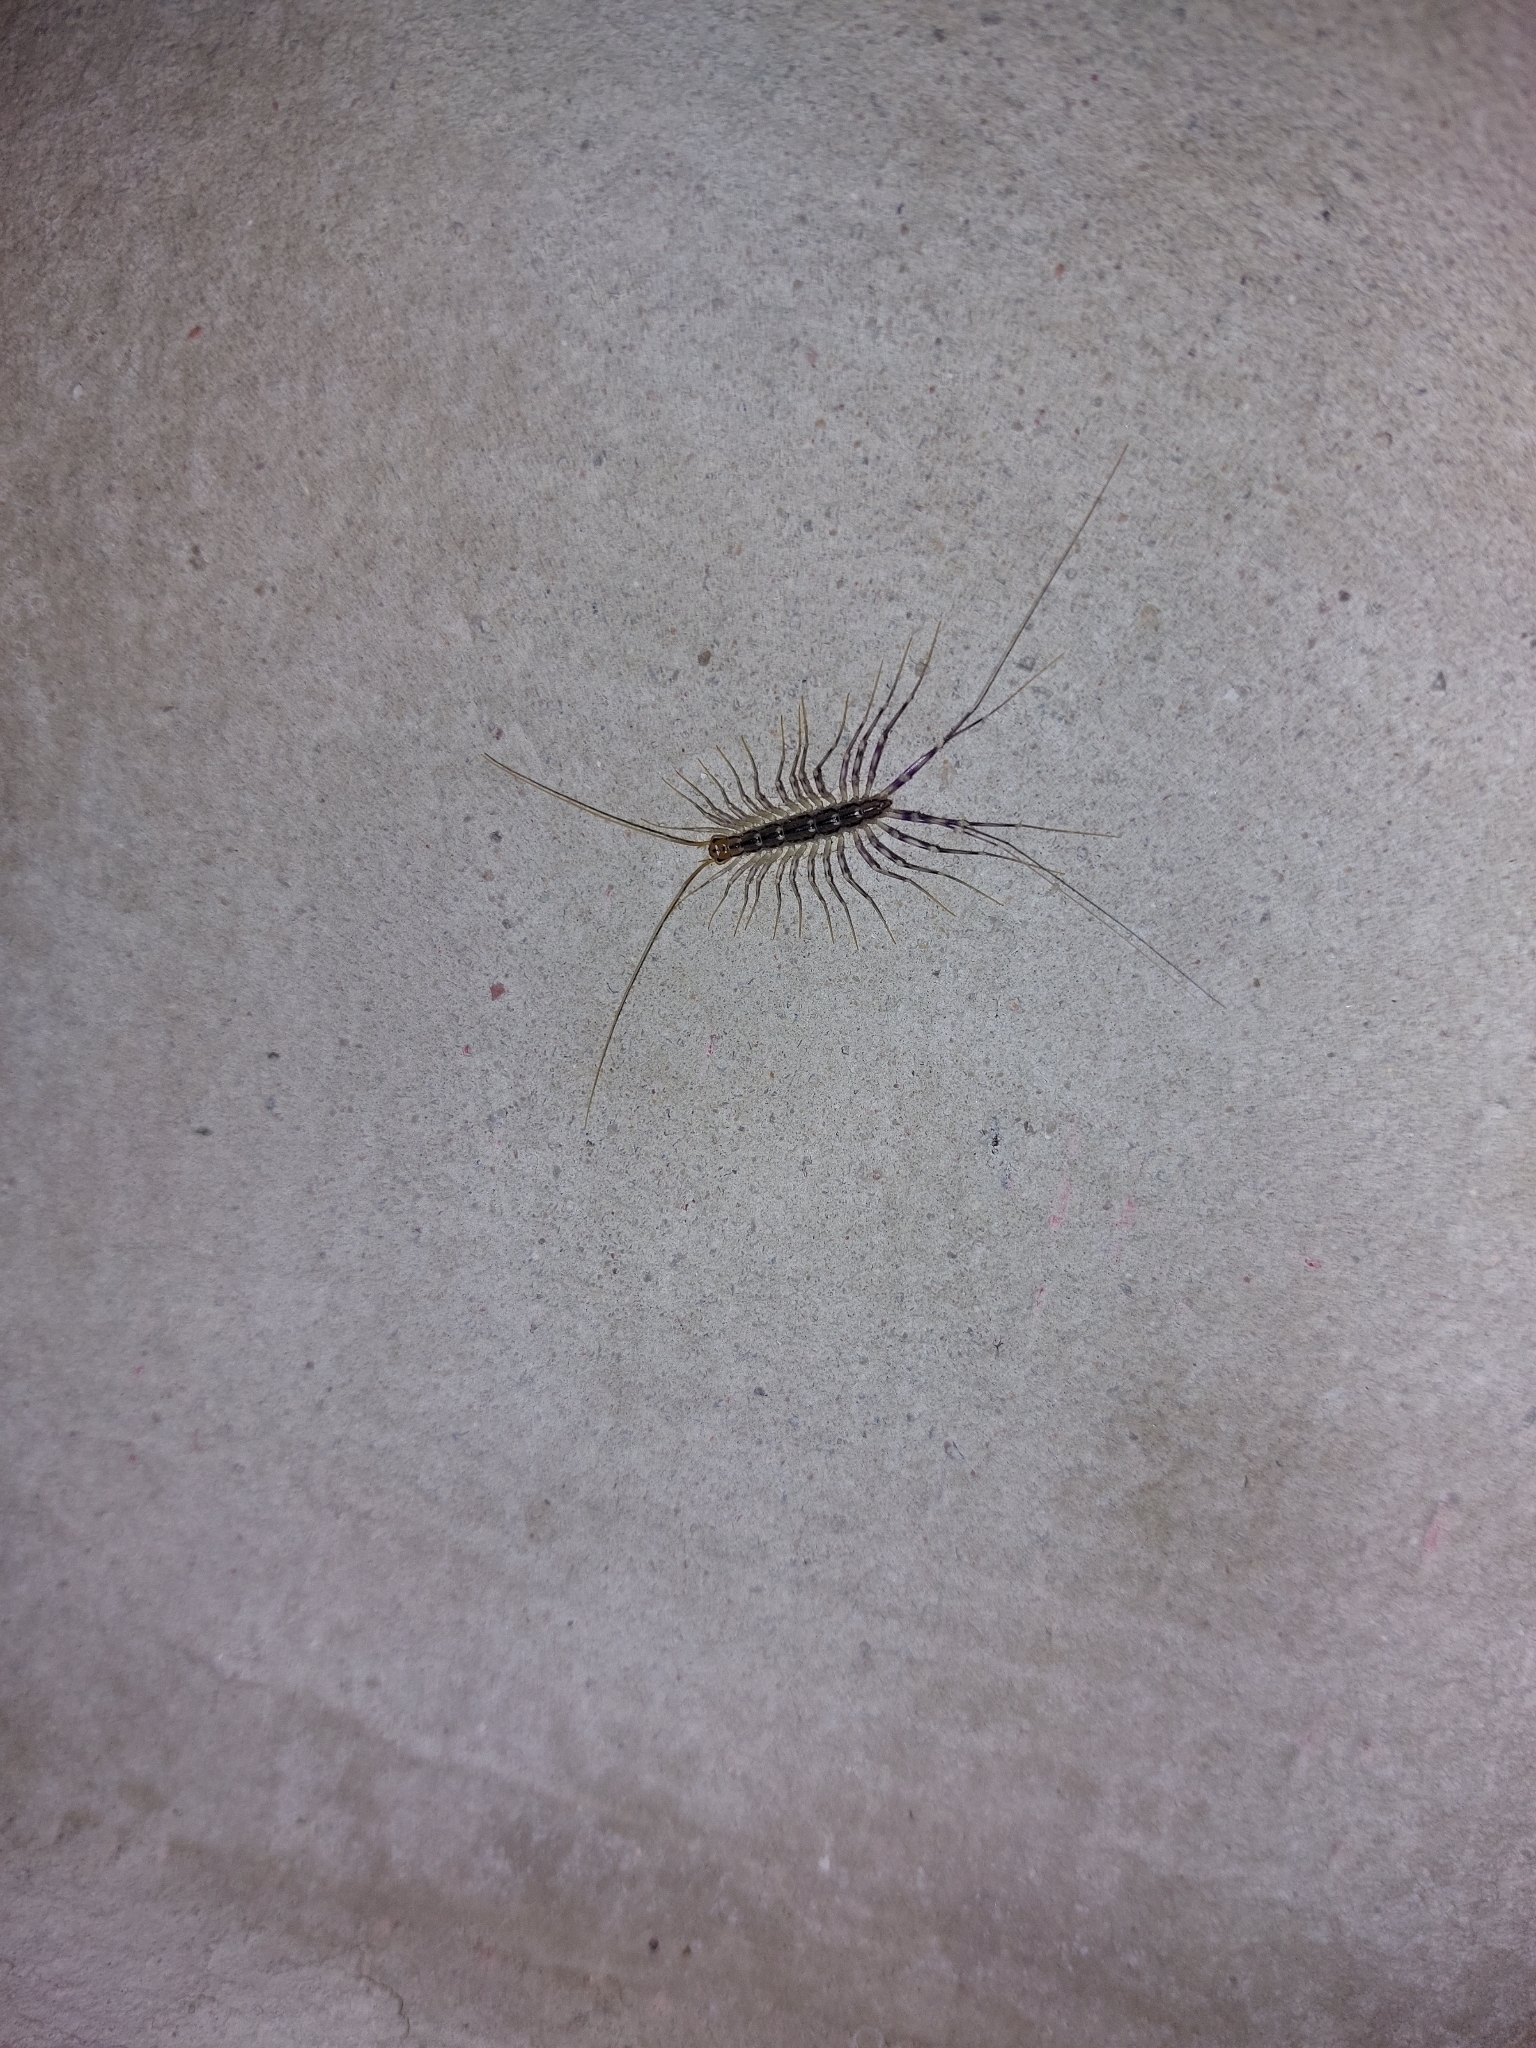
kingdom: Animalia
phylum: Arthropoda
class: Chilopoda
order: Scutigeromorpha
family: Scutigeridae
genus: Scutigera
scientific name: Scutigera coleoptrata
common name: House centipede
